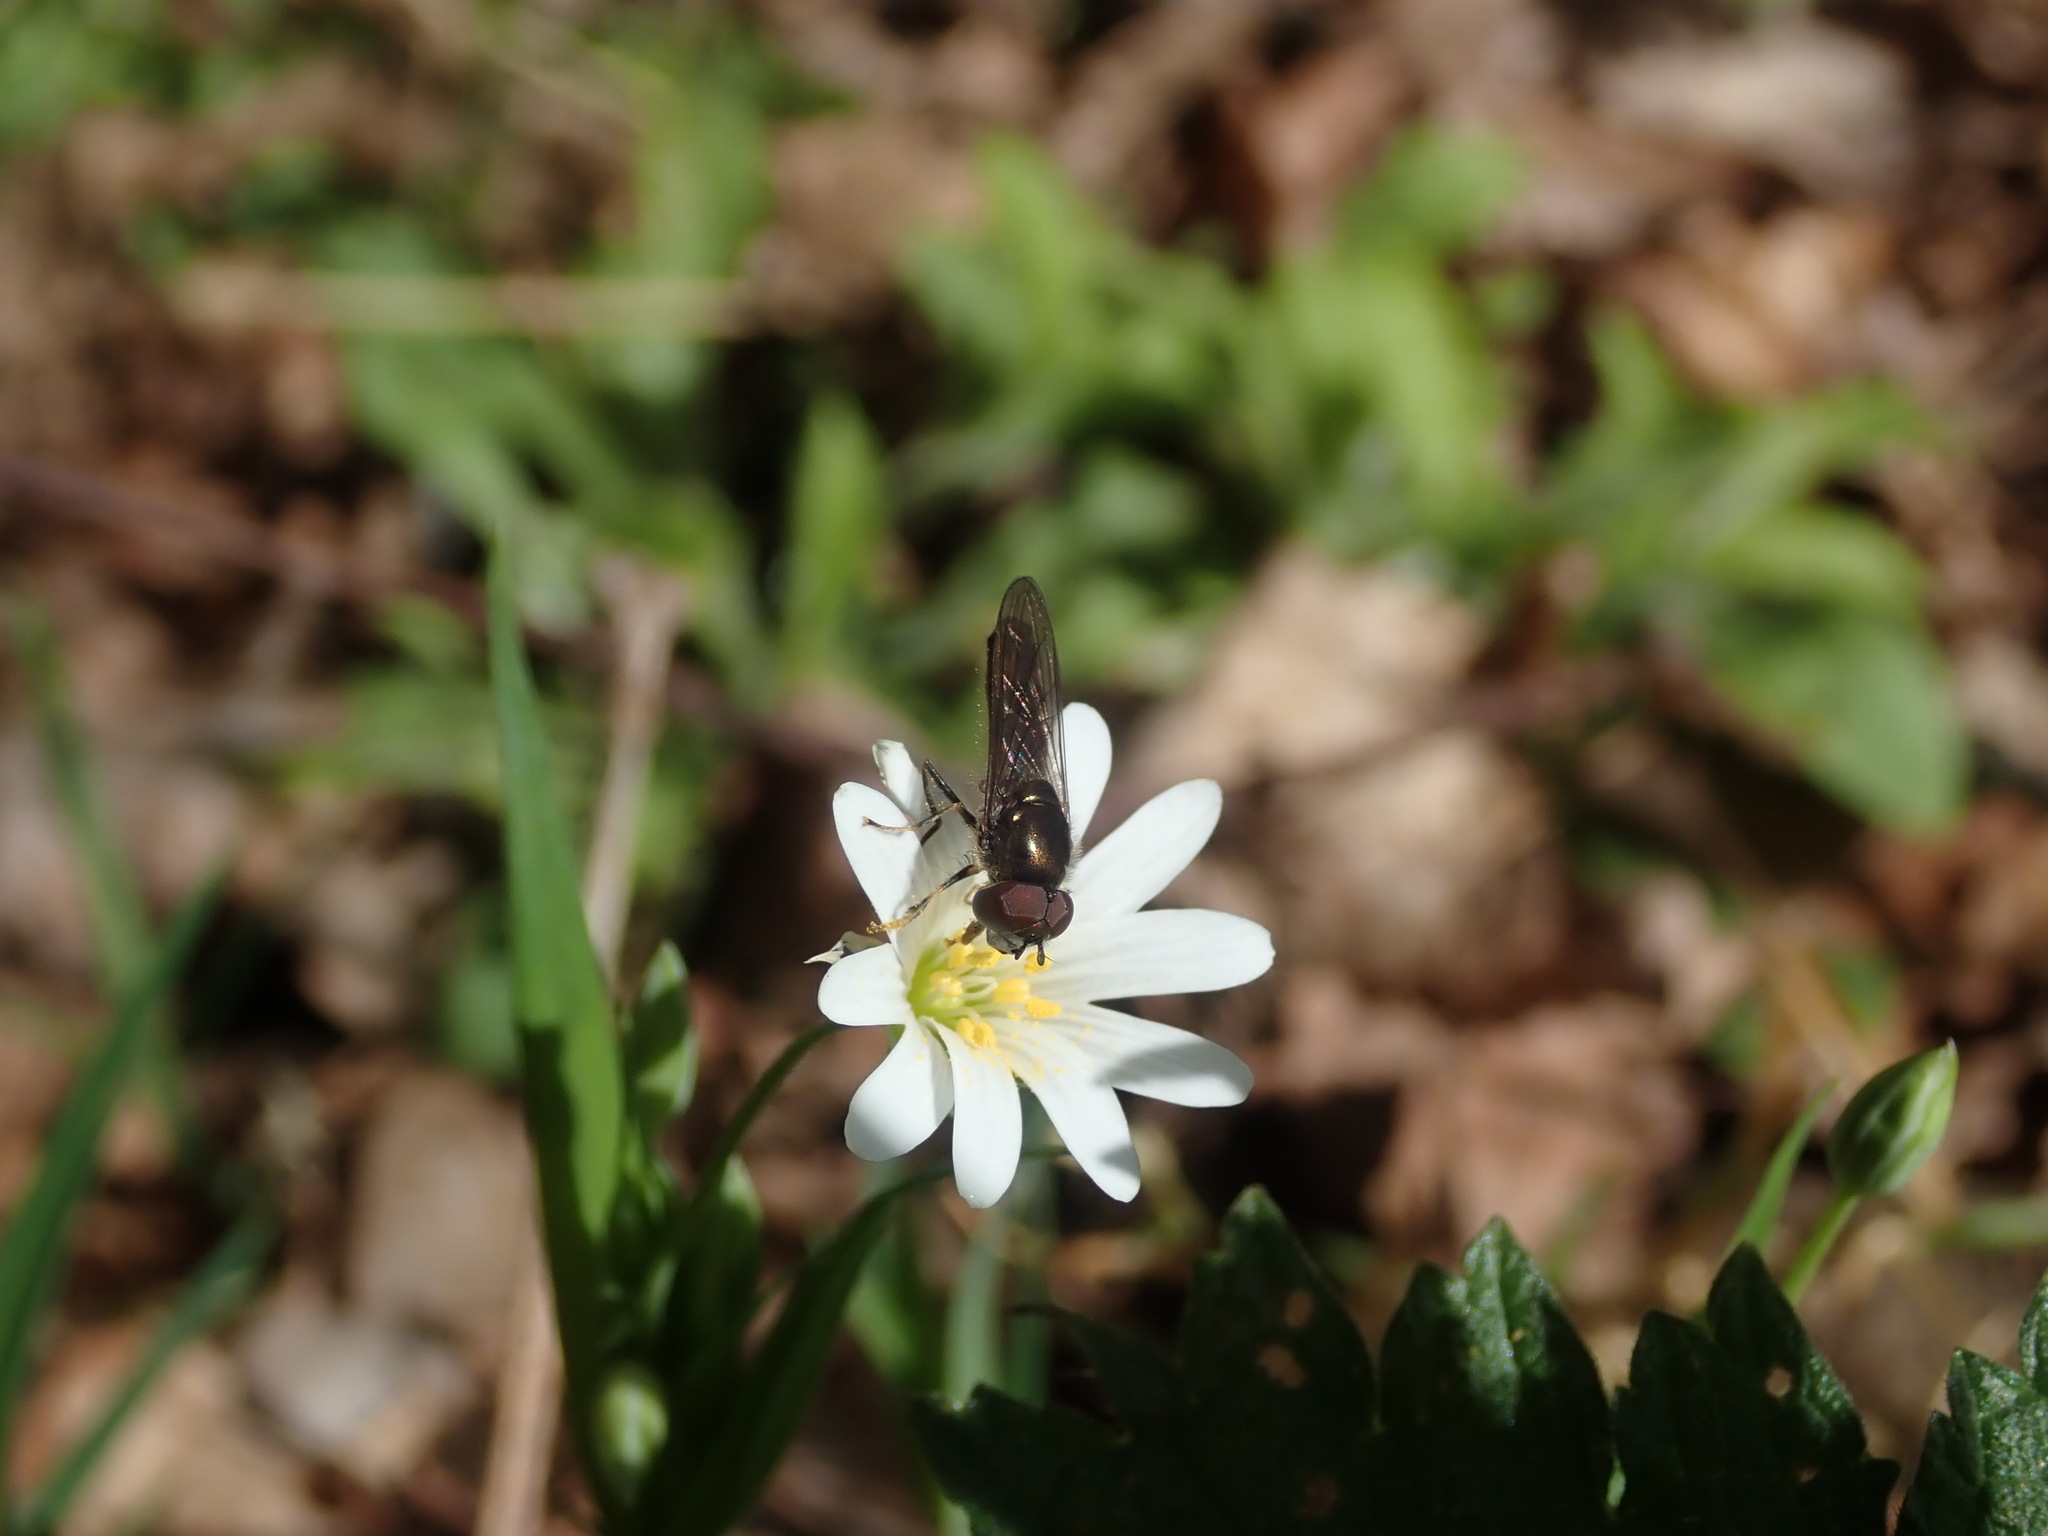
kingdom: Animalia
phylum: Arthropoda
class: Insecta
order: Diptera
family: Syrphidae
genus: Platycheirus
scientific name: Platycheirus albimanus
